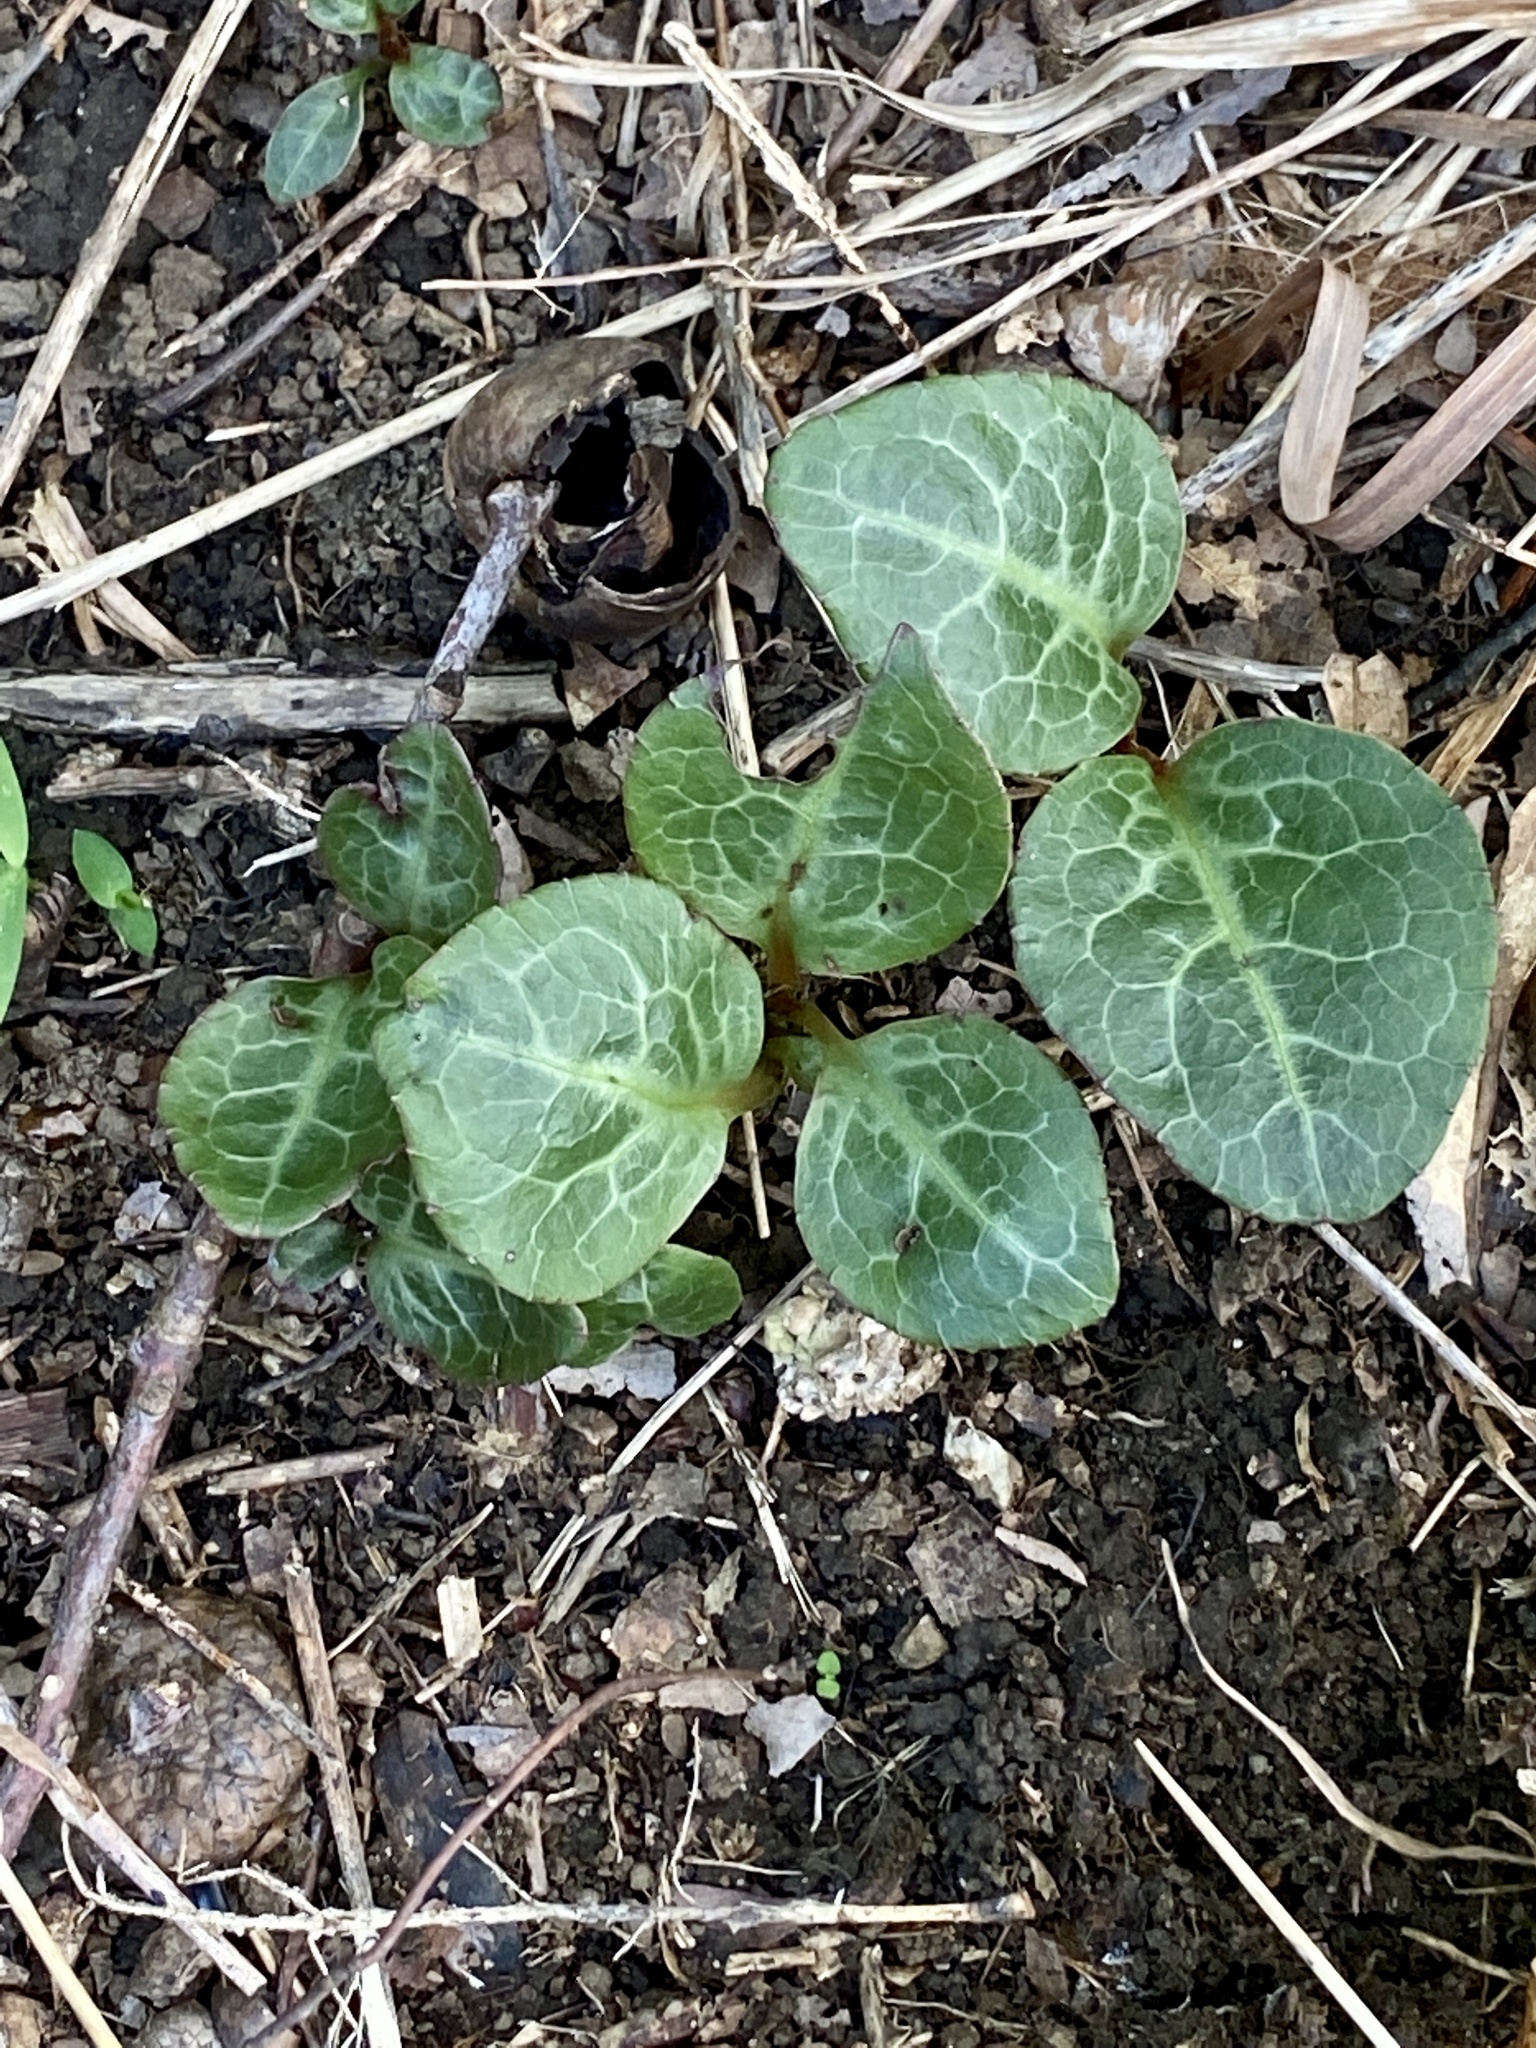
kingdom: Plantae
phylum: Tracheophyta
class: Magnoliopsida
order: Ericales
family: Ericaceae
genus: Pyrola
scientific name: Pyrola americana
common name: American wintergreen
